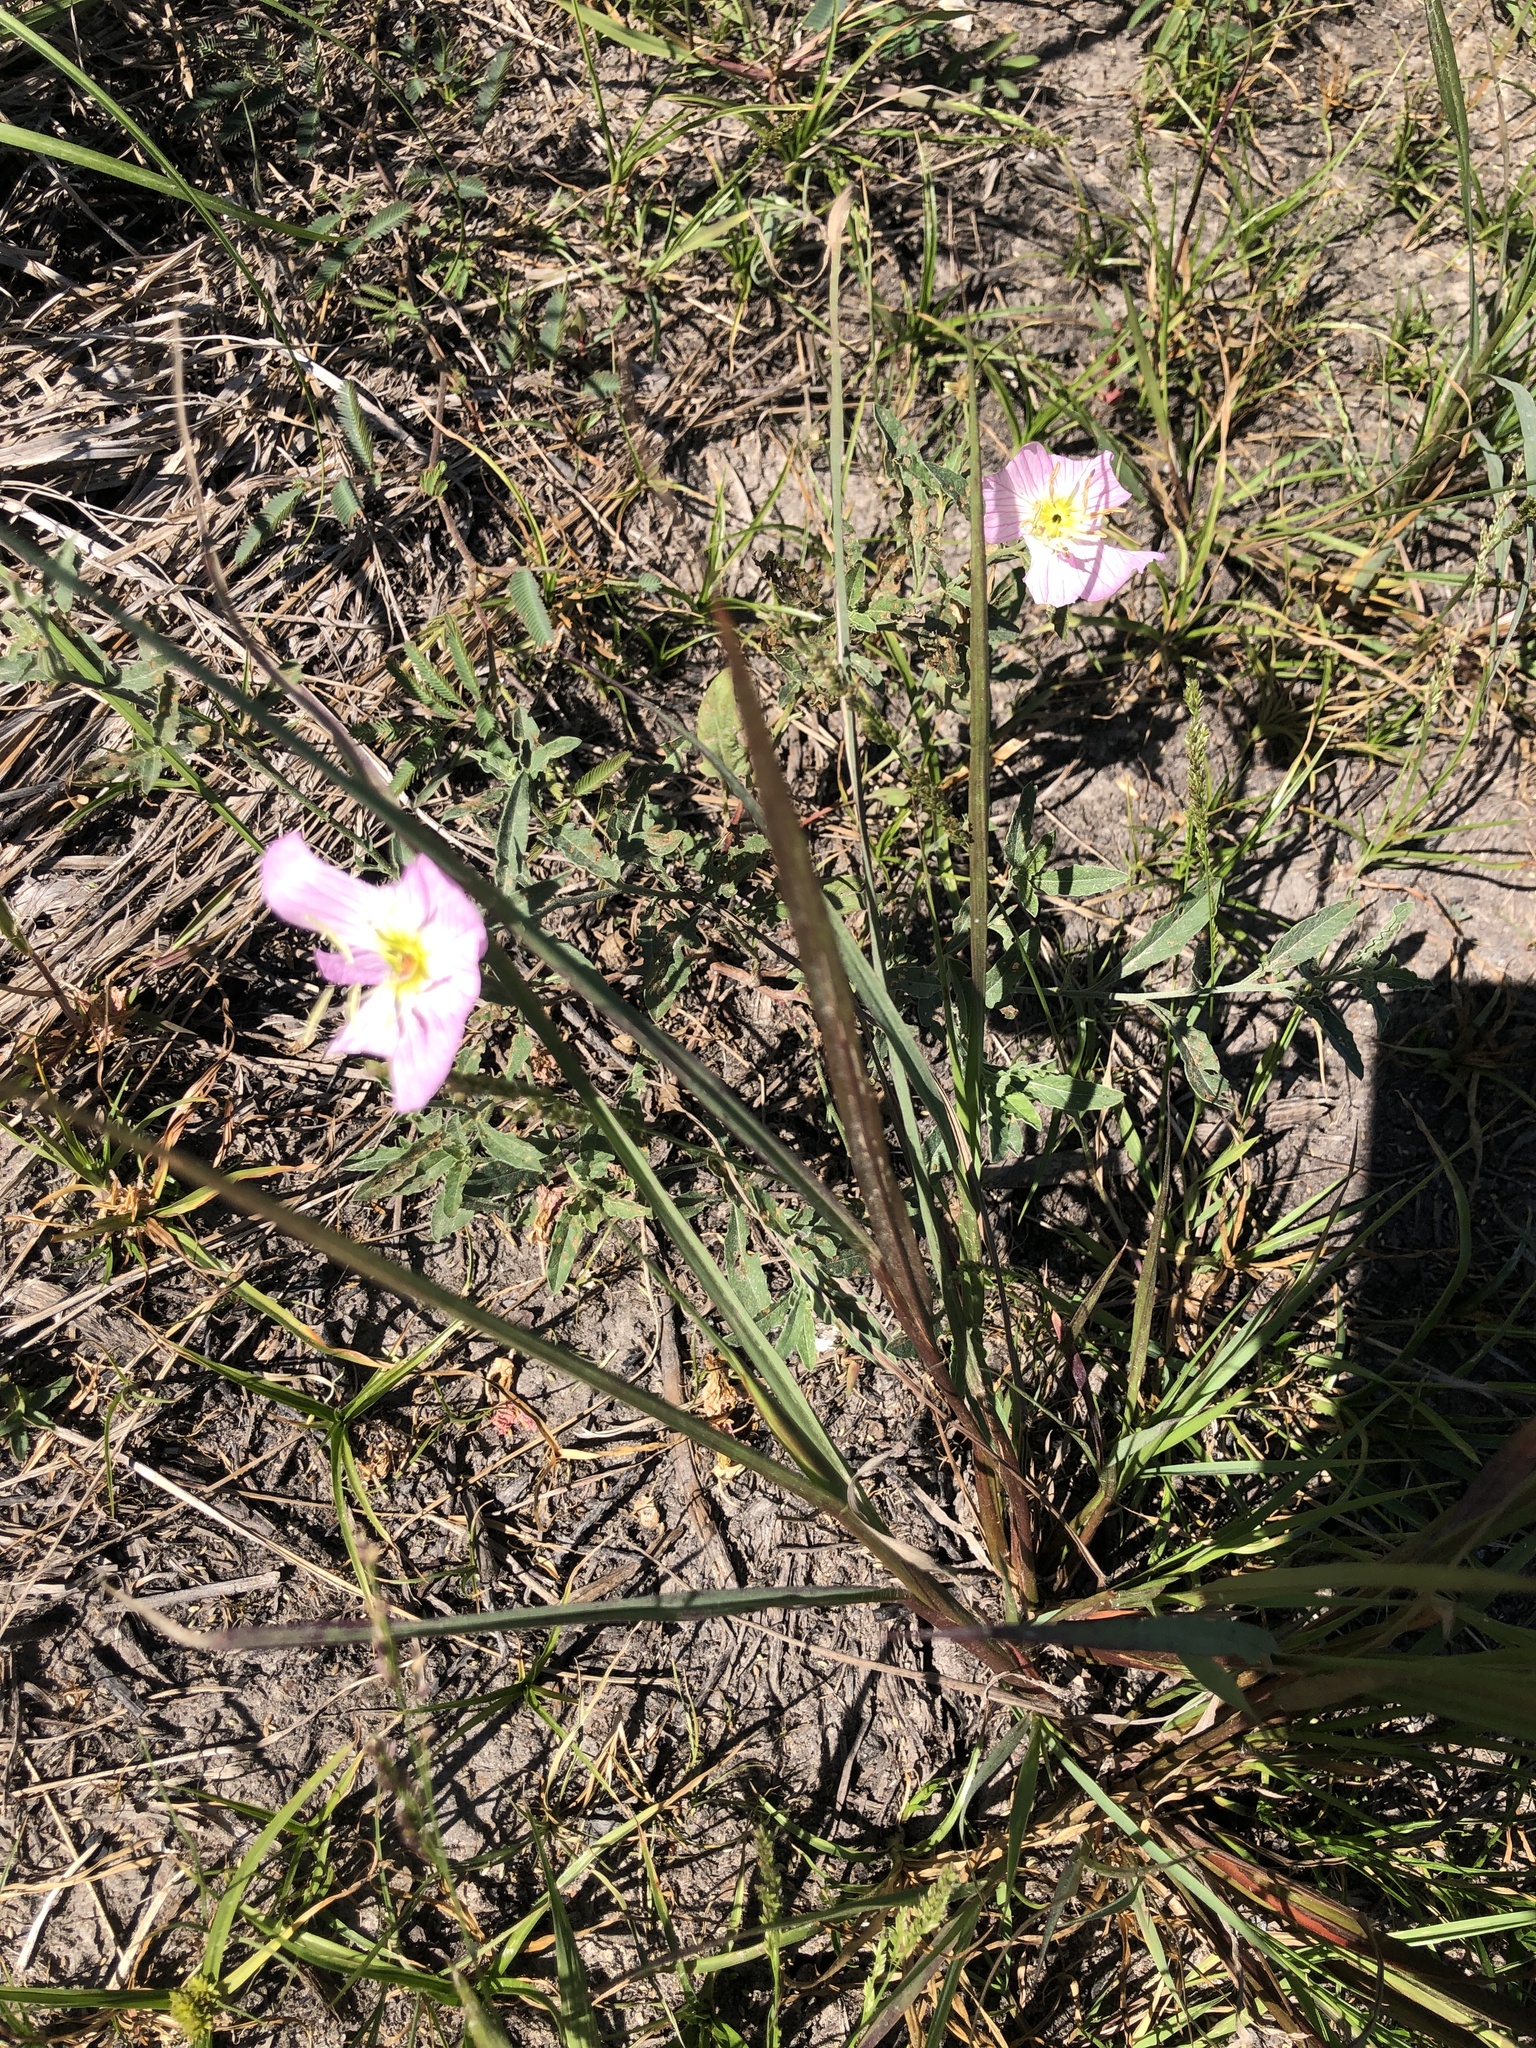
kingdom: Plantae
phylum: Tracheophyta
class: Magnoliopsida
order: Myrtales
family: Onagraceae
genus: Oenothera
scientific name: Oenothera speciosa
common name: White evening-primrose
